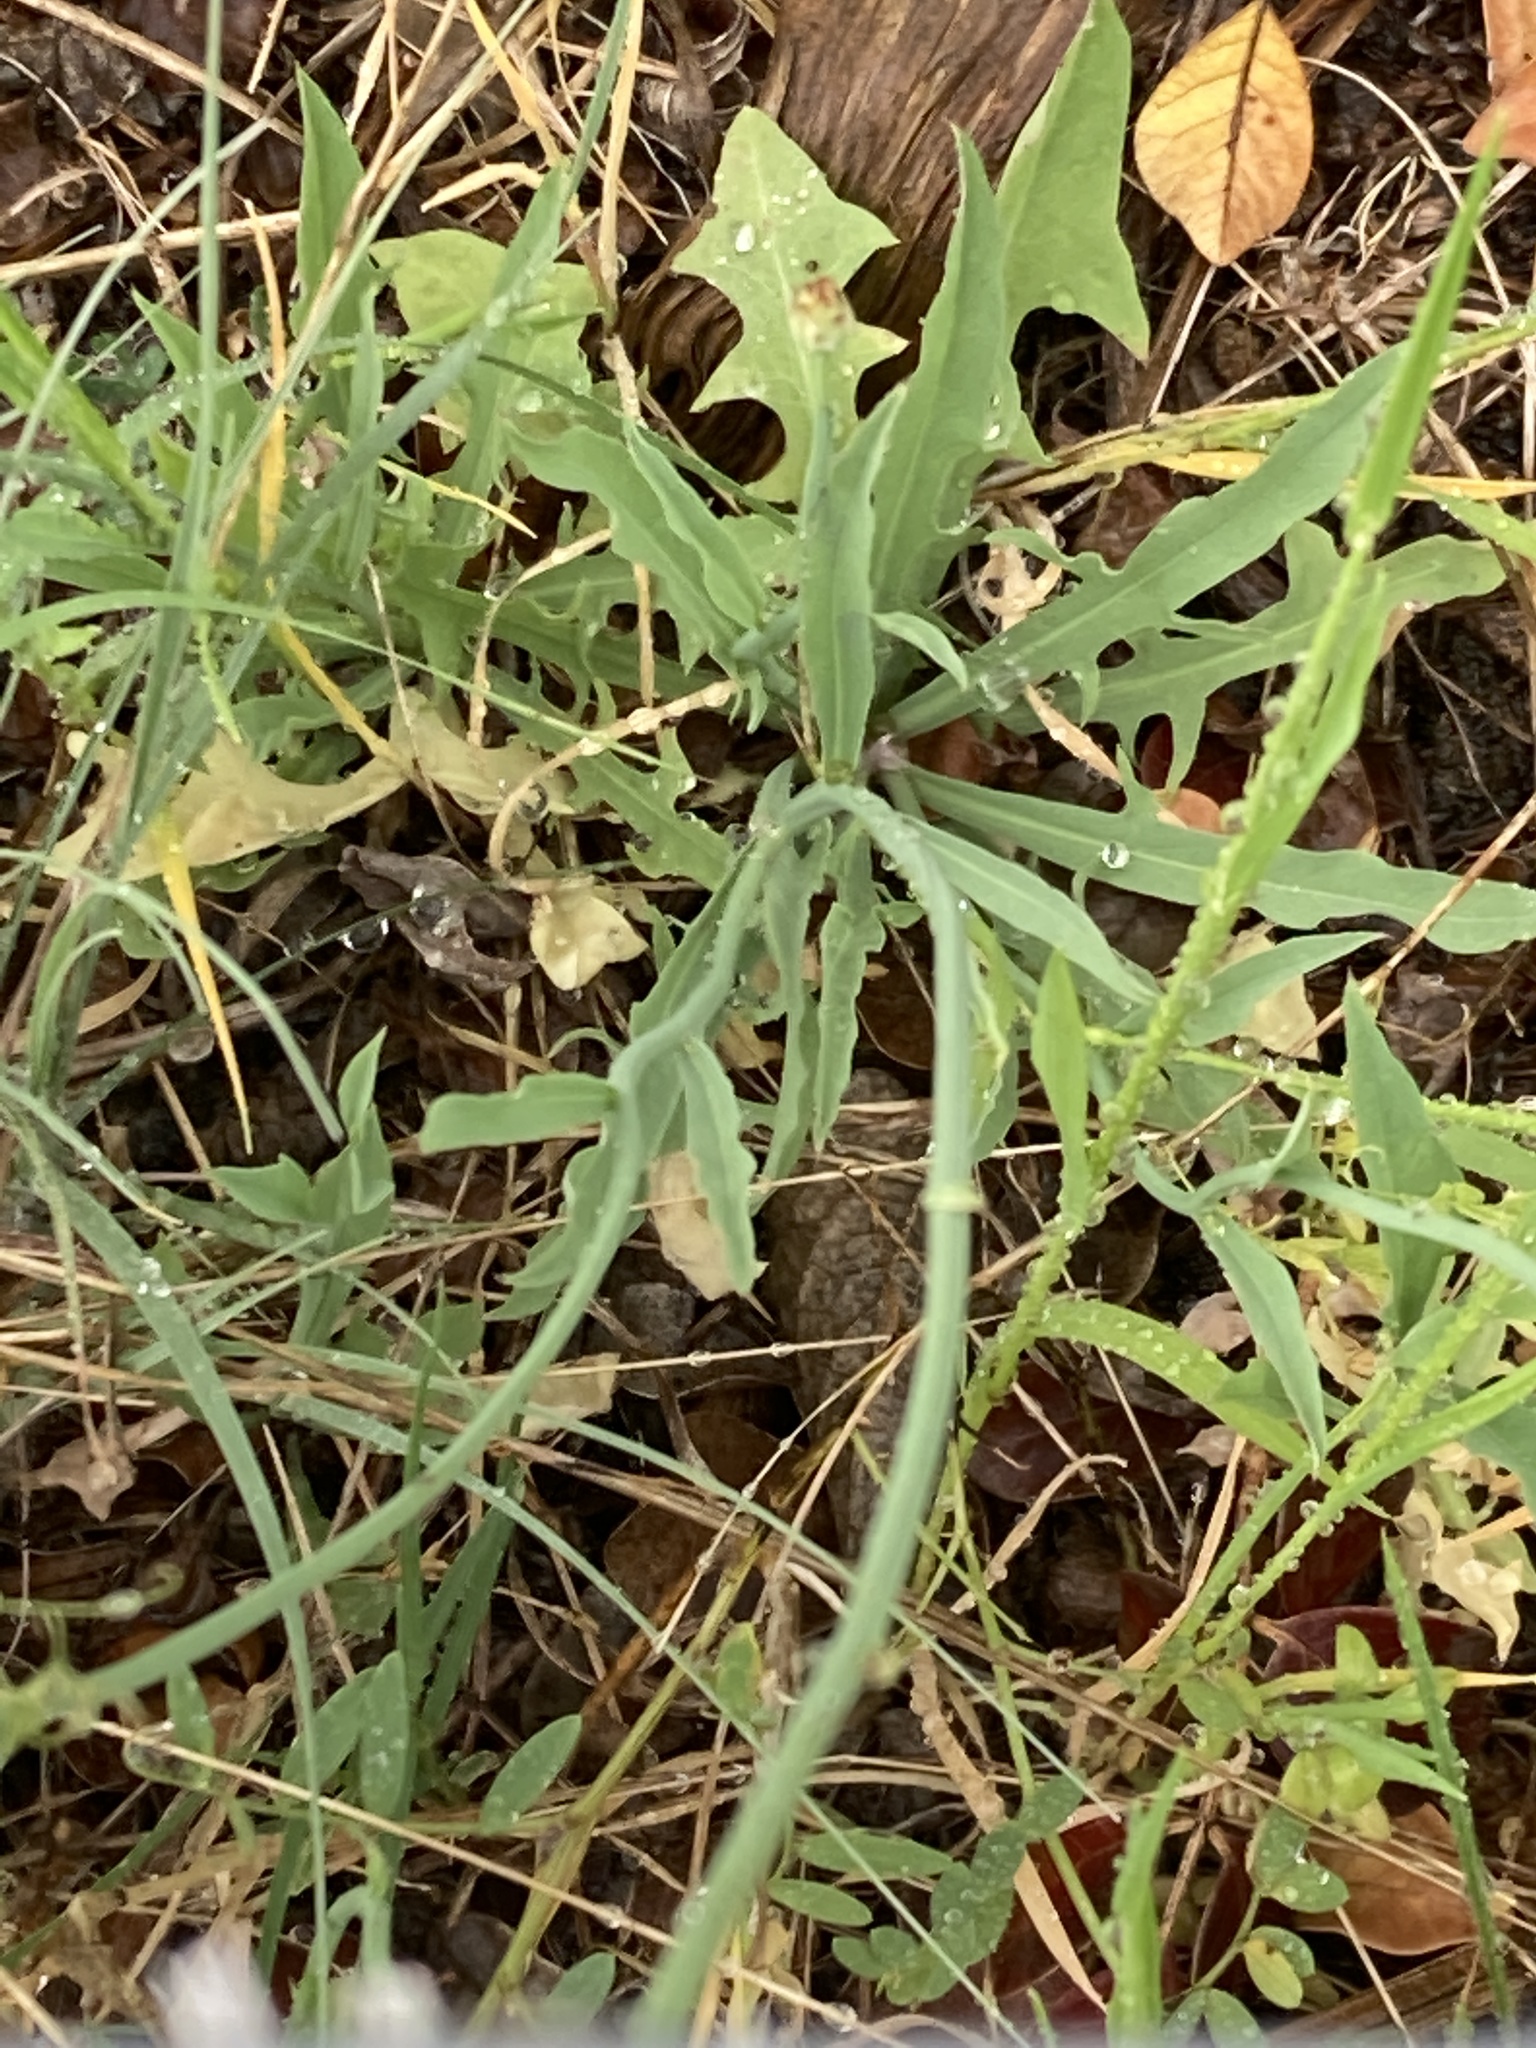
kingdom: Plantae
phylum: Tracheophyta
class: Magnoliopsida
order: Asterales
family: Asteraceae
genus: Pinaropappus
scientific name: Pinaropappus roseus
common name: Rock-lettuce
